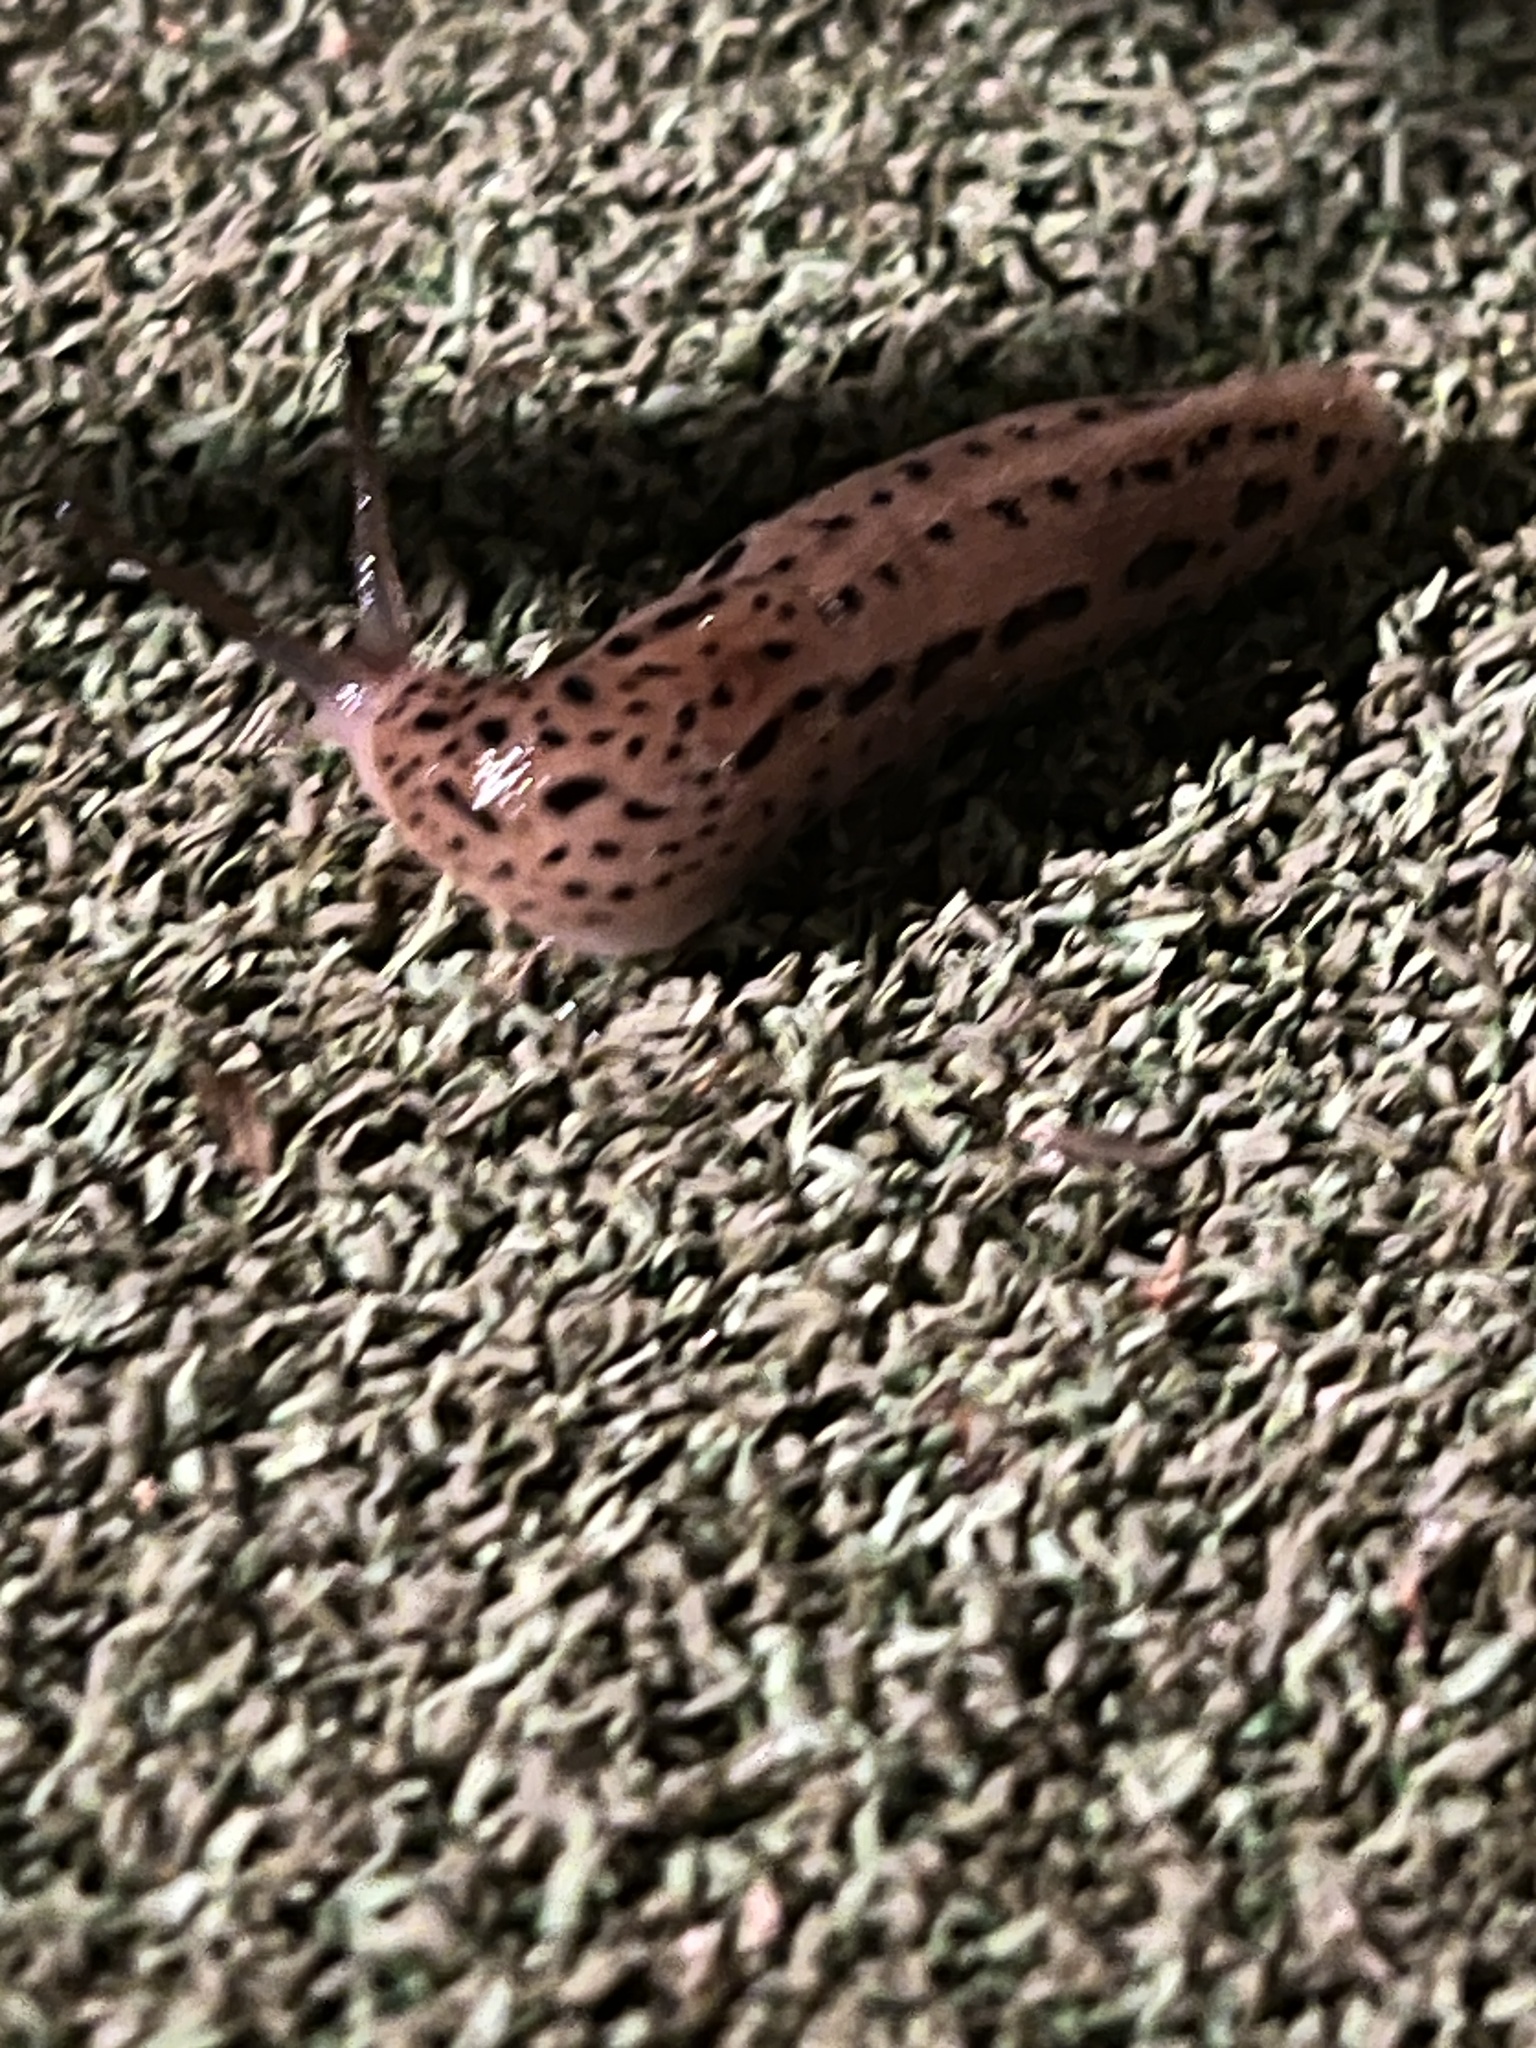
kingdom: Animalia
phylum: Mollusca
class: Gastropoda
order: Stylommatophora
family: Limacidae
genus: Limax
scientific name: Limax maximus
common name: Great grey slug
